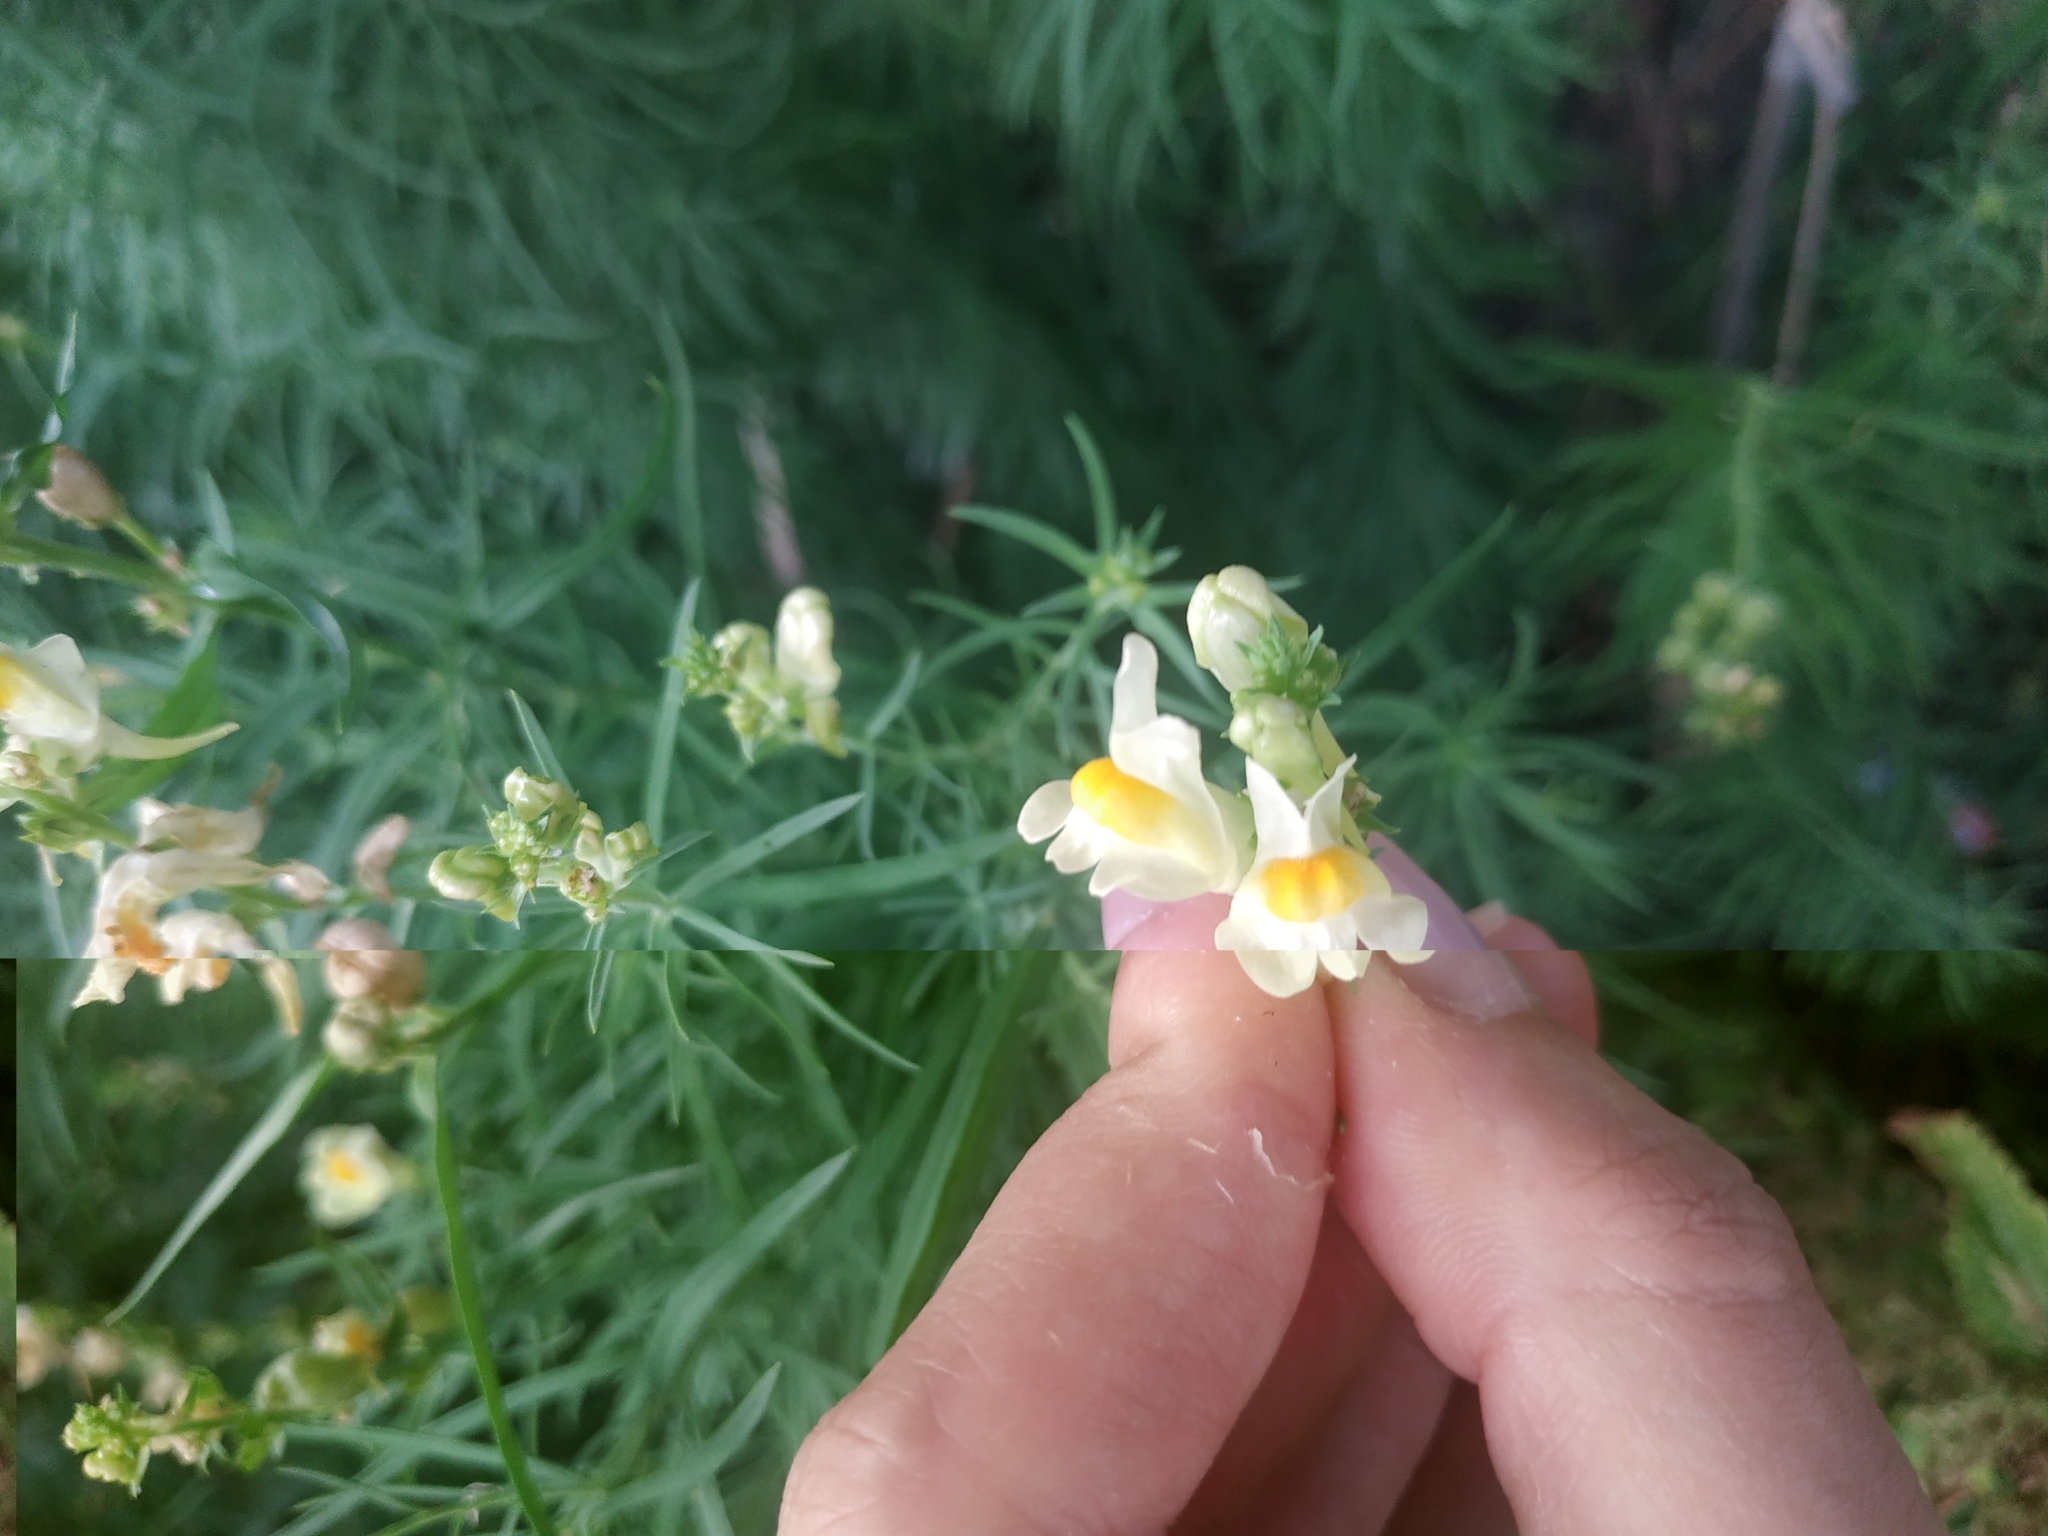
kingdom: Plantae
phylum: Tracheophyta
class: Magnoliopsida
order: Lamiales
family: Plantaginaceae
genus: Linaria
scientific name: Linaria vulgaris
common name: Butter and eggs
